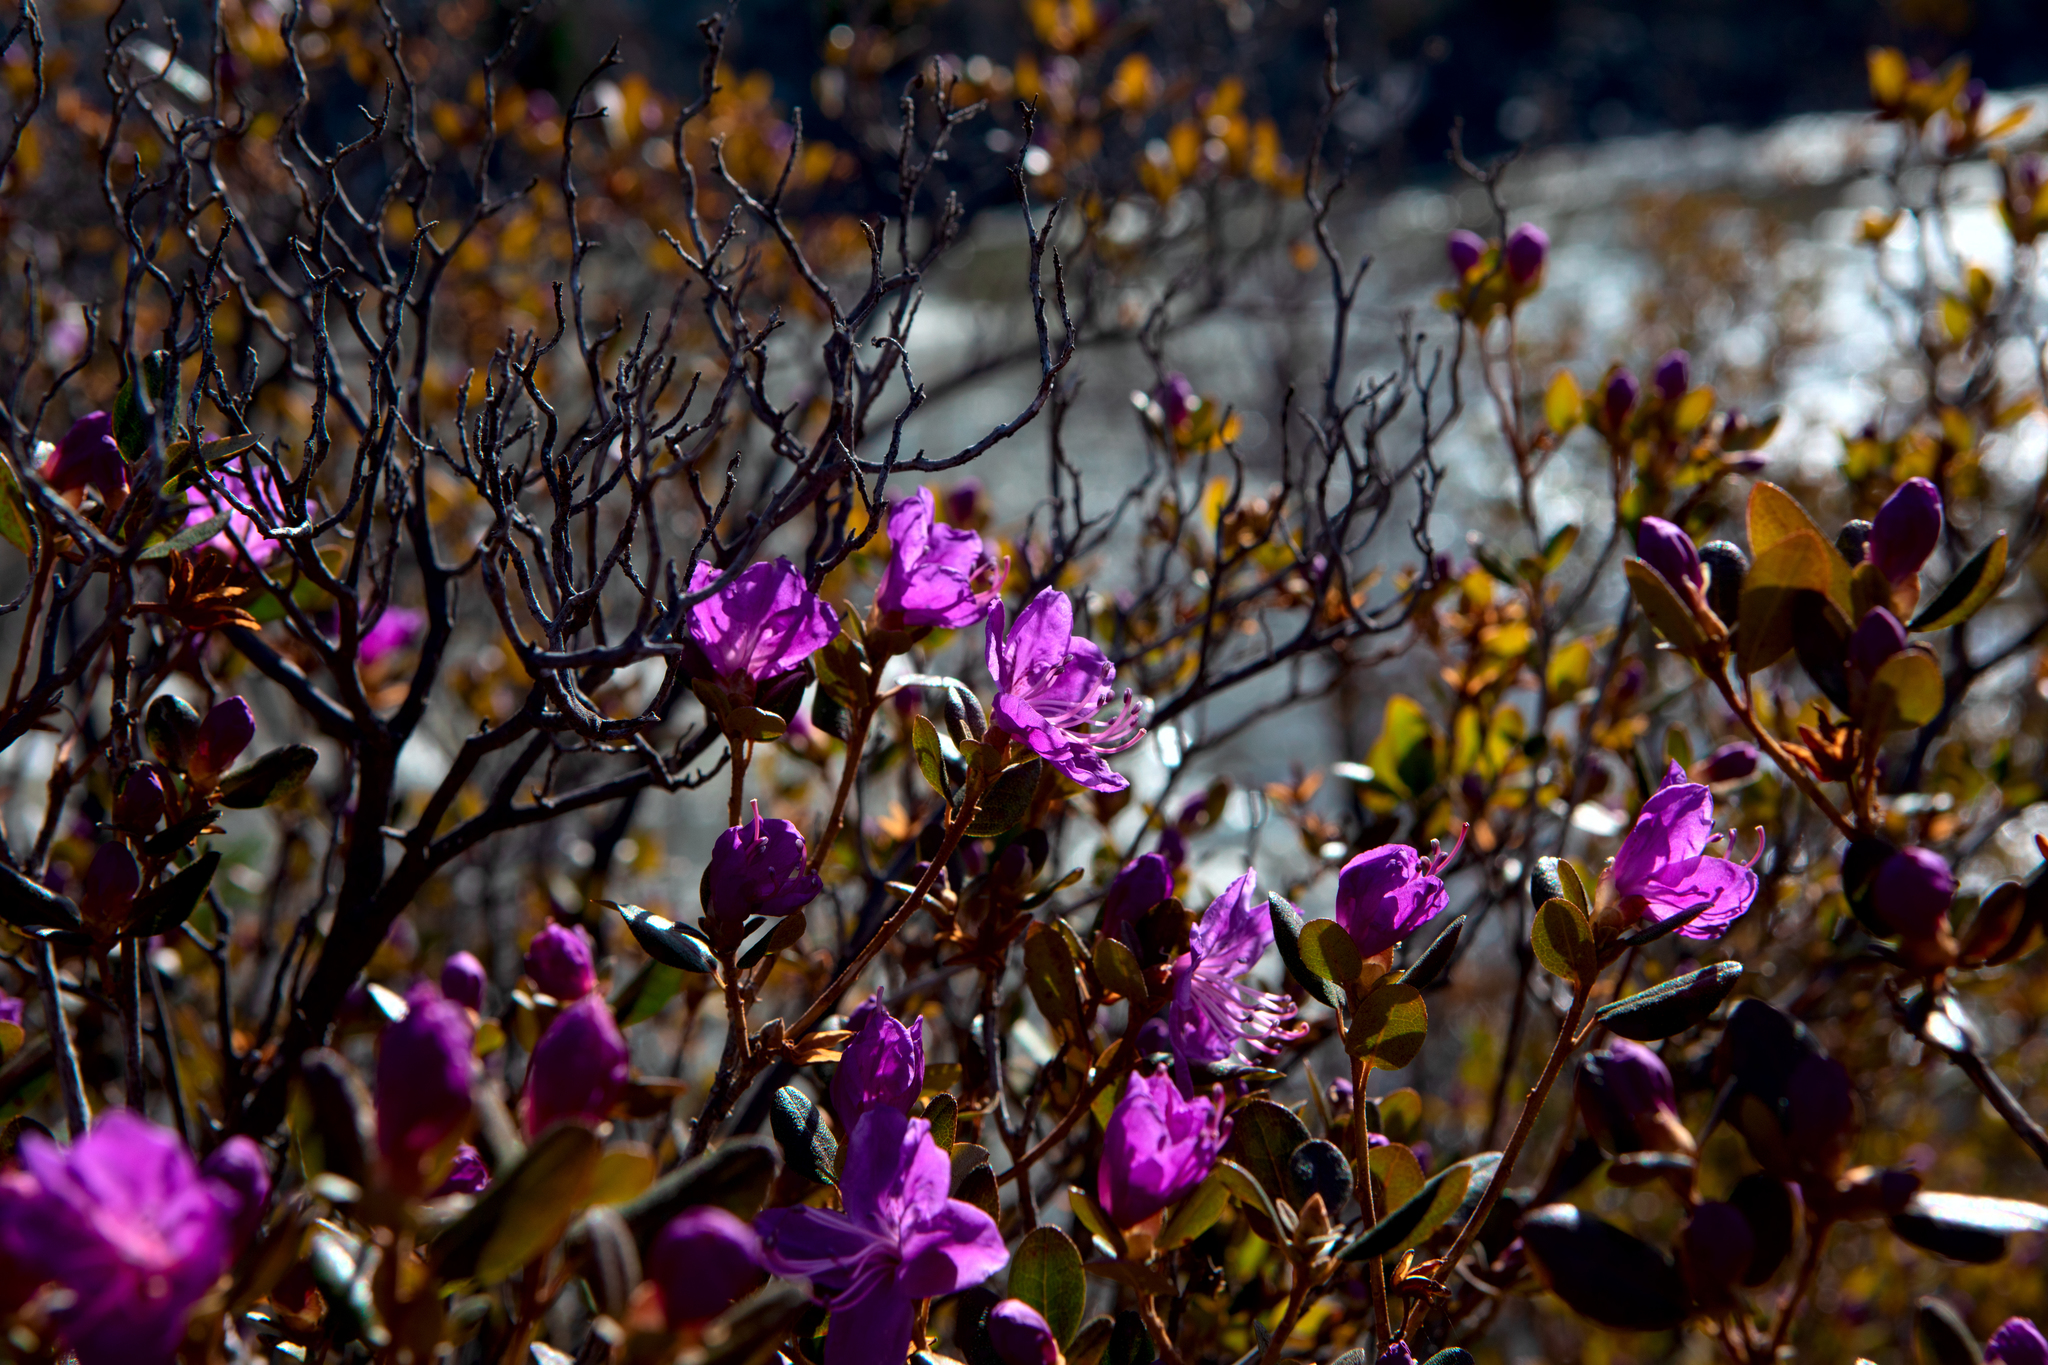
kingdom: Plantae
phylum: Tracheophyta
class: Magnoliopsida
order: Ericales
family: Ericaceae
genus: Rhododendron
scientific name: Rhododendron dauricum
